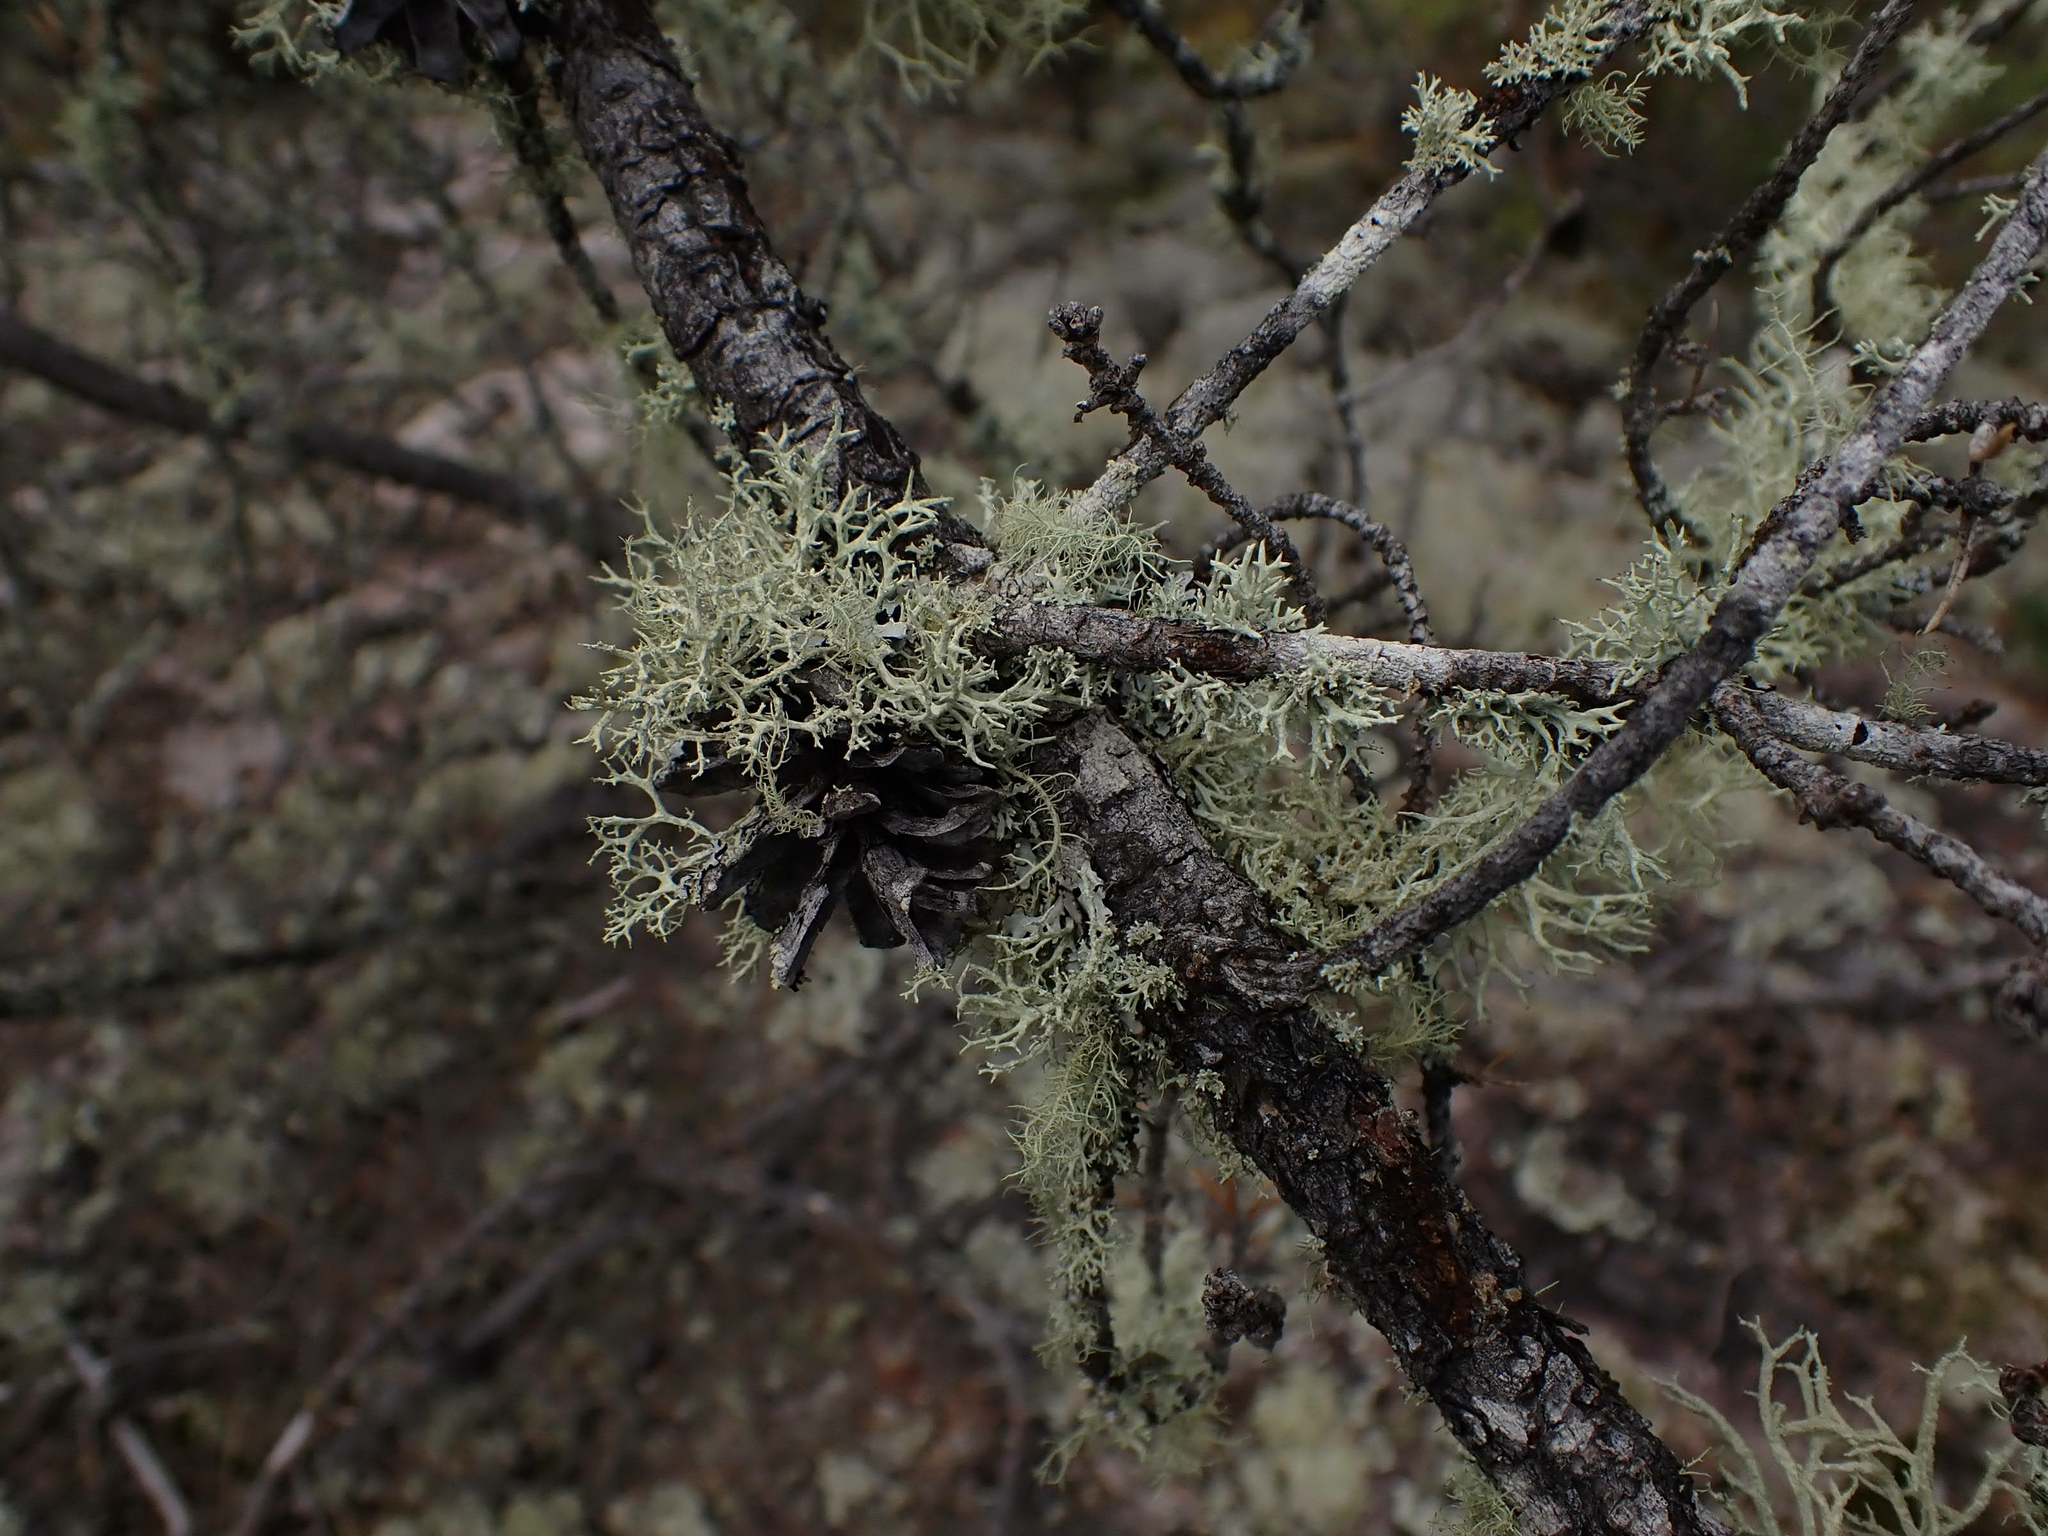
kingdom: Plantae
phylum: Tracheophyta
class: Pinopsida
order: Pinales
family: Pinaceae
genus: Pinus
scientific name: Pinus banksiana
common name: Jack pine
